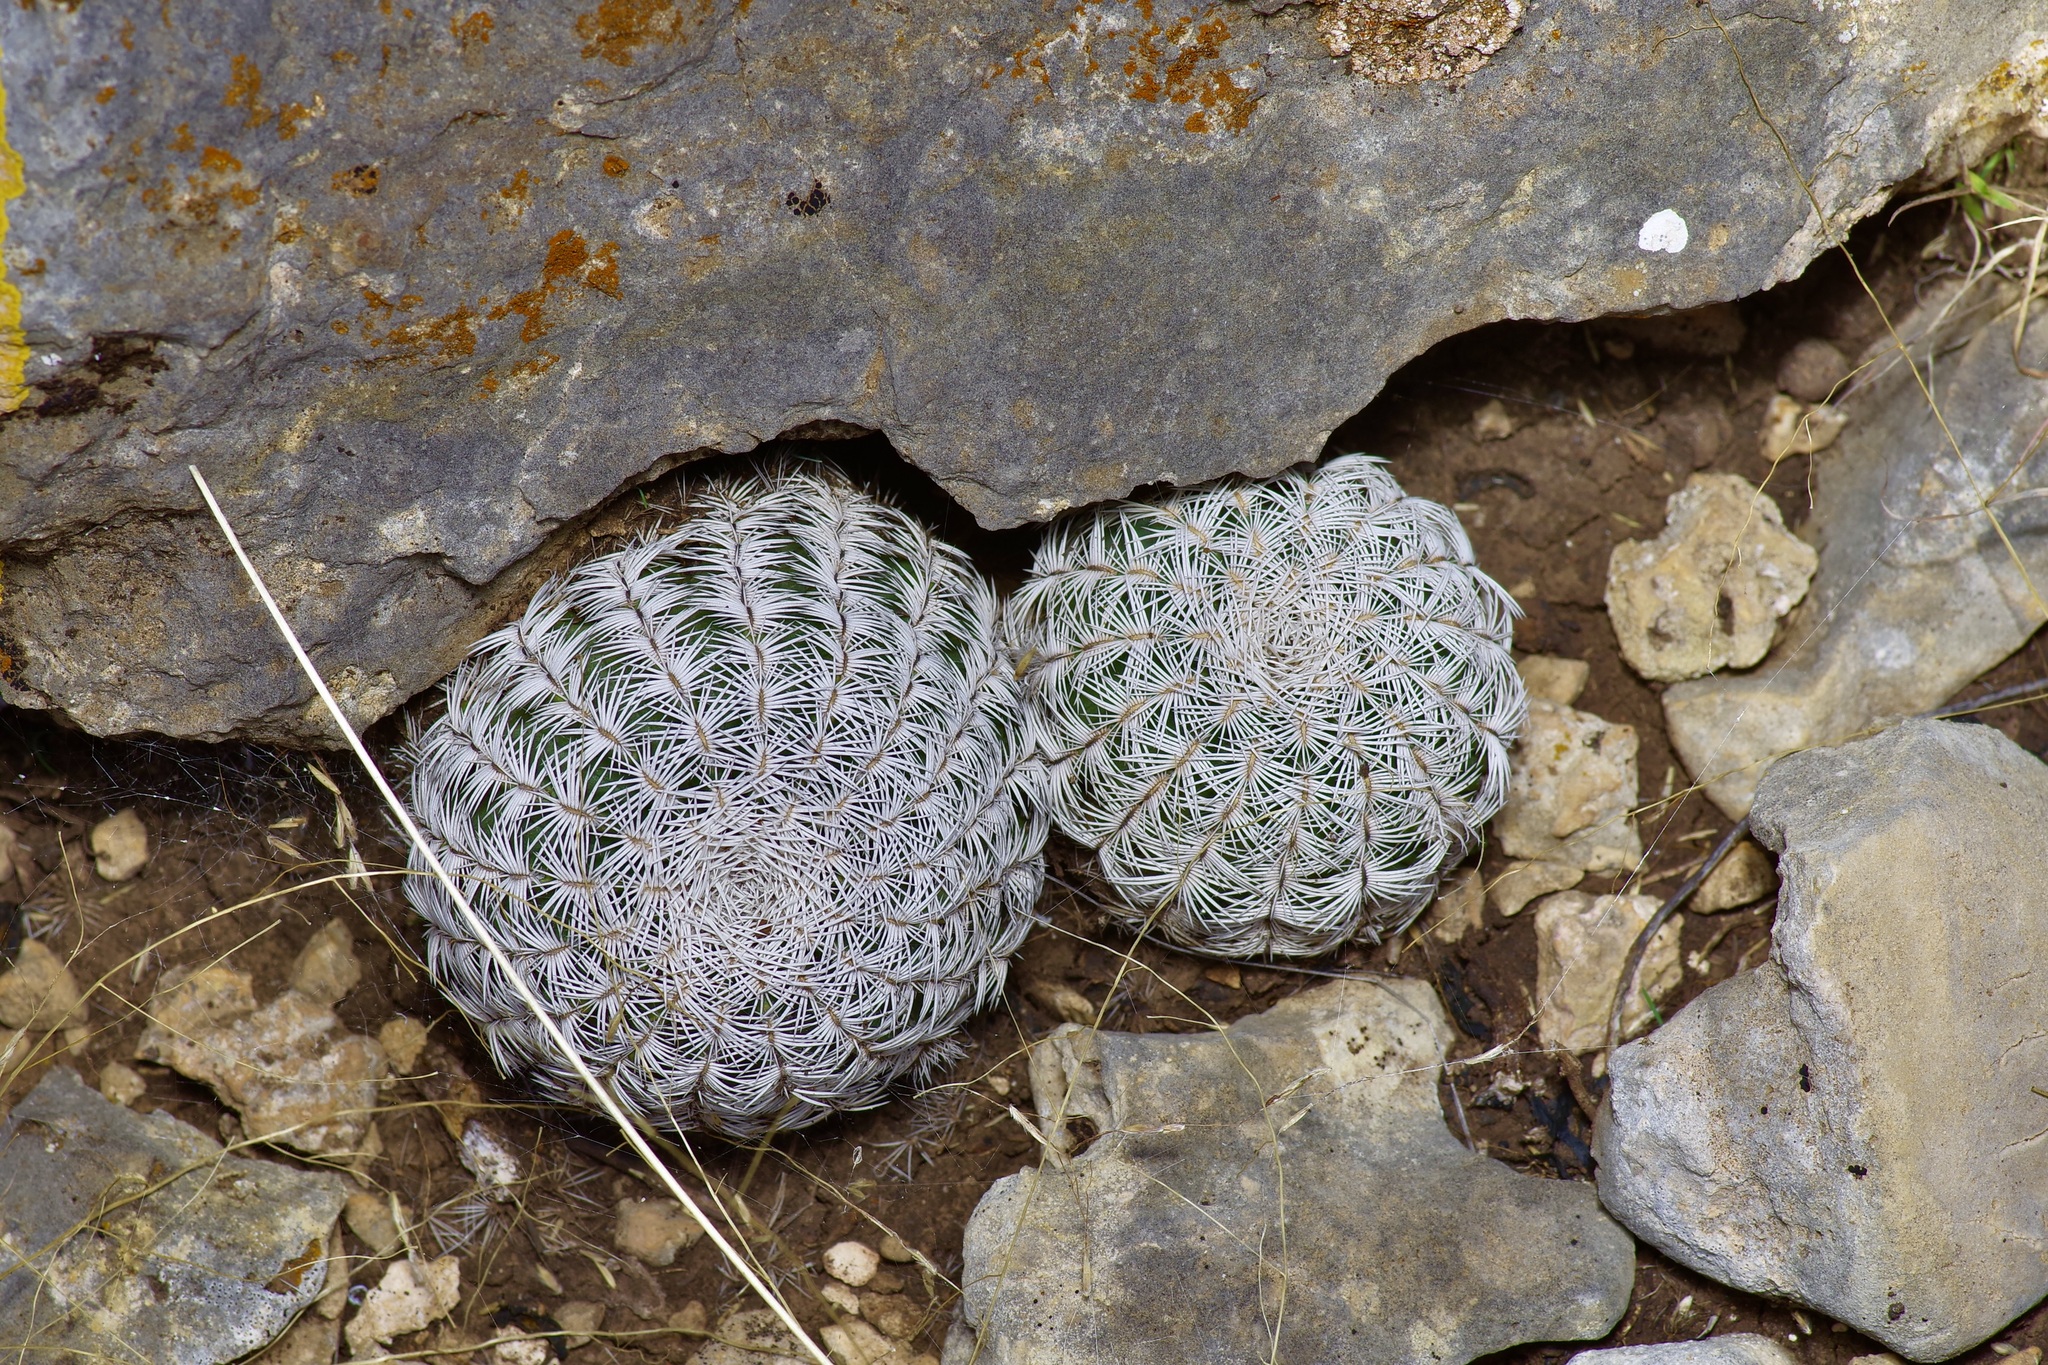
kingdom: Plantae
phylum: Tracheophyta
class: Magnoliopsida
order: Caryophyllales
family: Cactaceae
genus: Echinocereus
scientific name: Echinocereus reichenbachii
